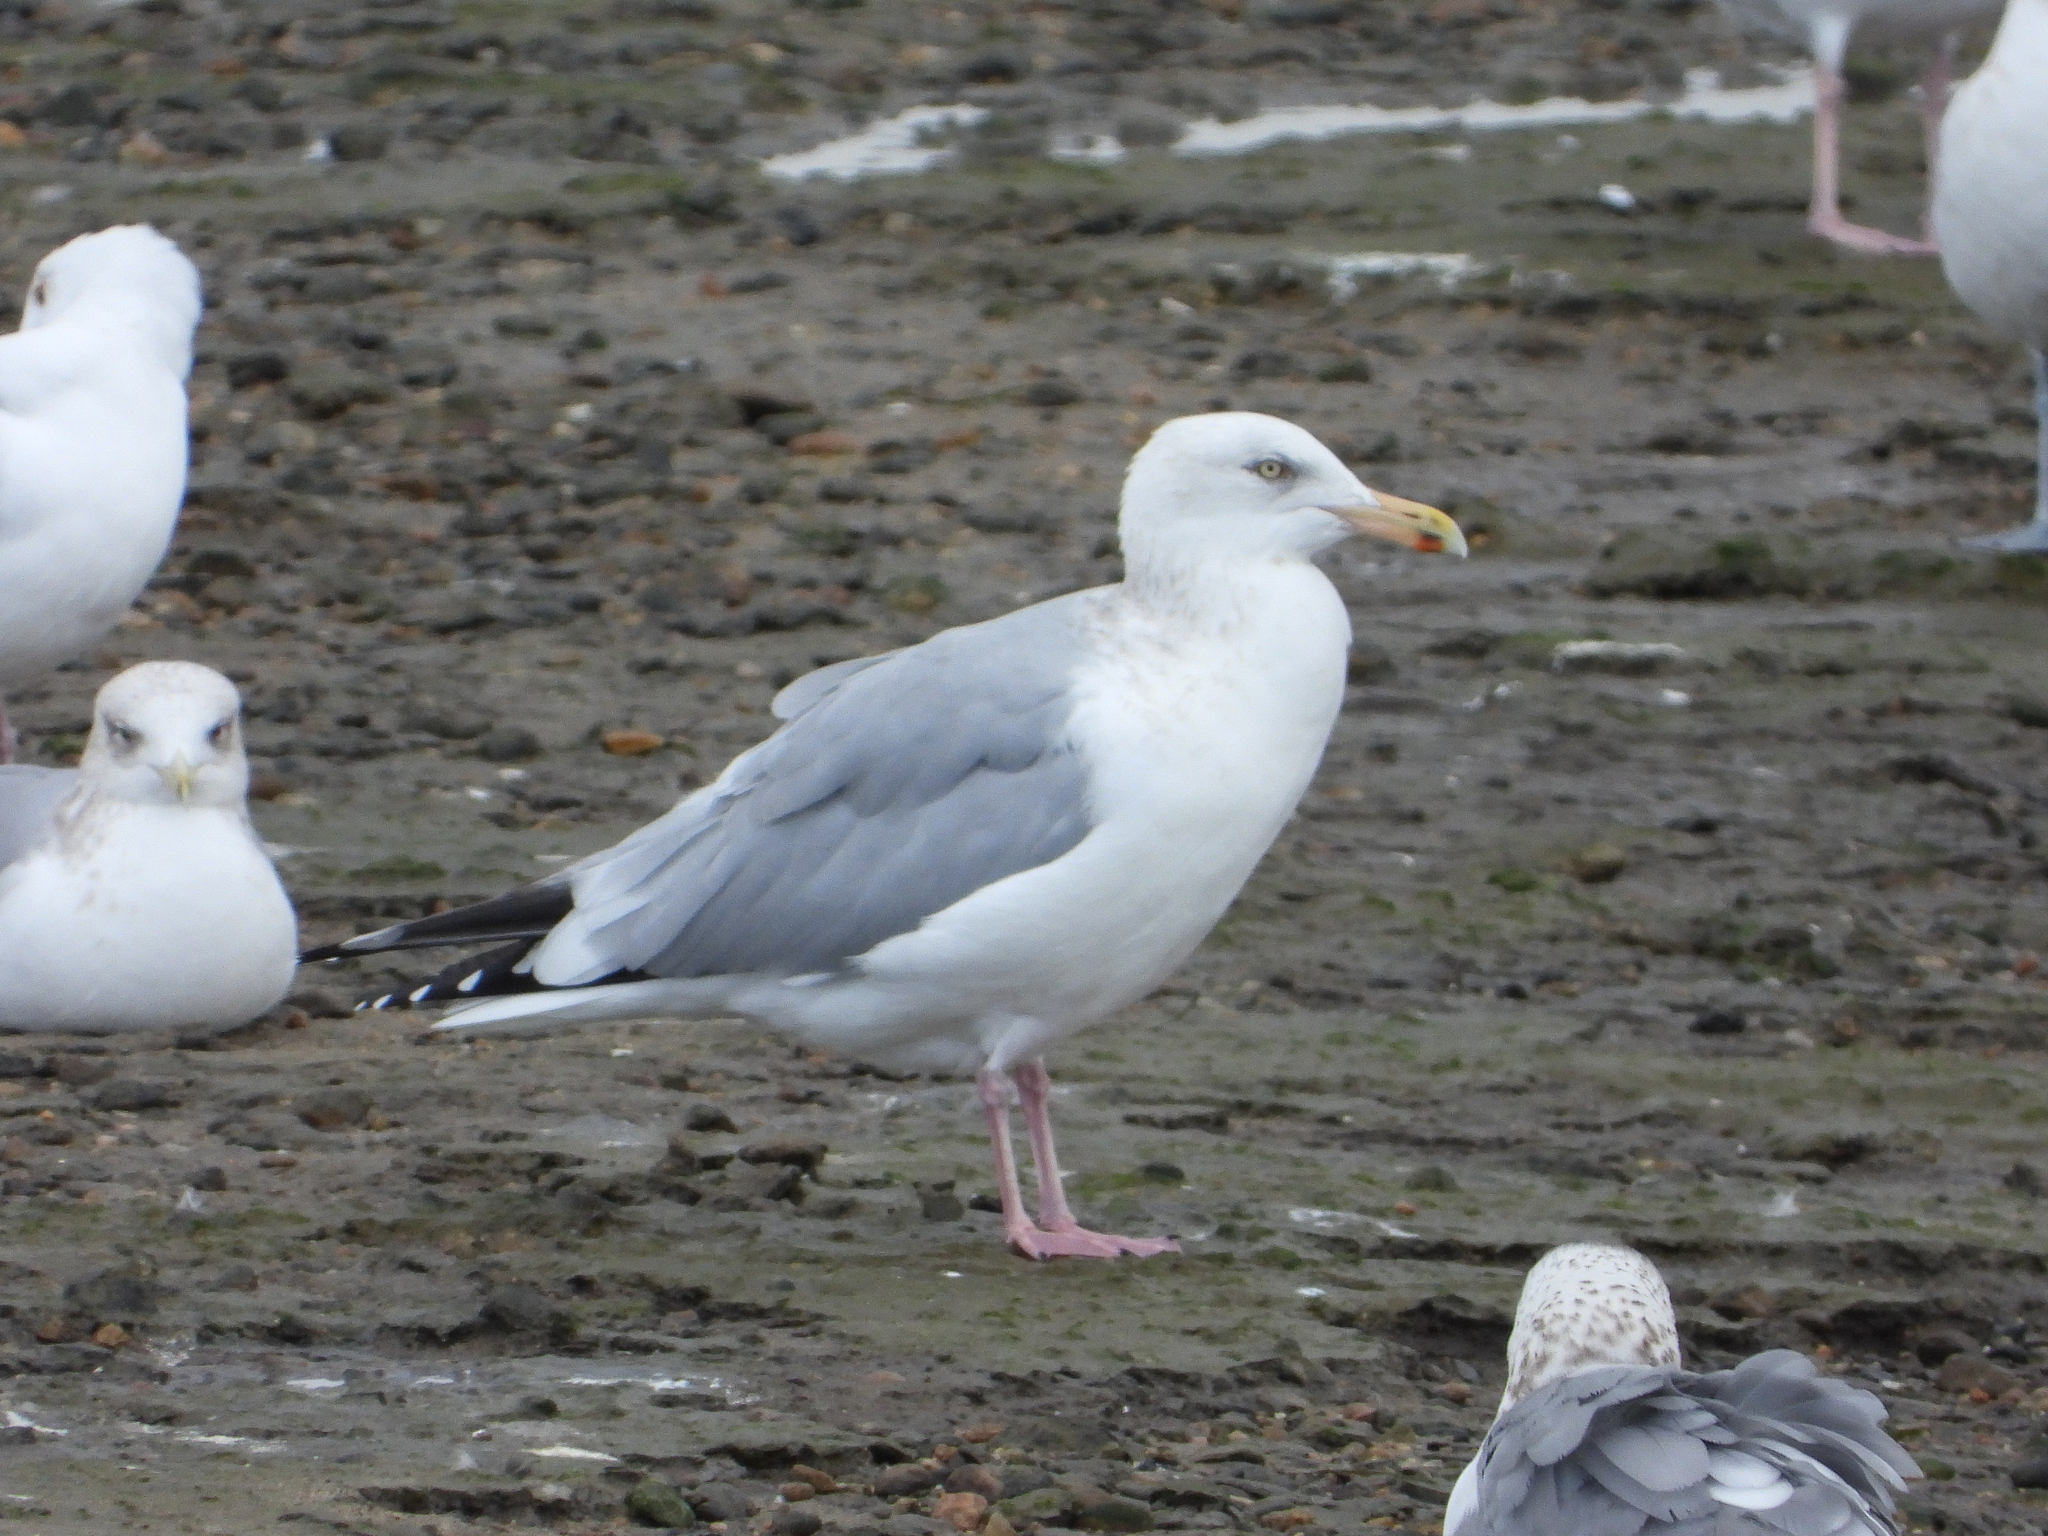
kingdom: Animalia
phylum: Chordata
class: Aves
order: Charadriiformes
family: Laridae
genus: Larus
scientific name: Larus argentatus
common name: Herring gull
